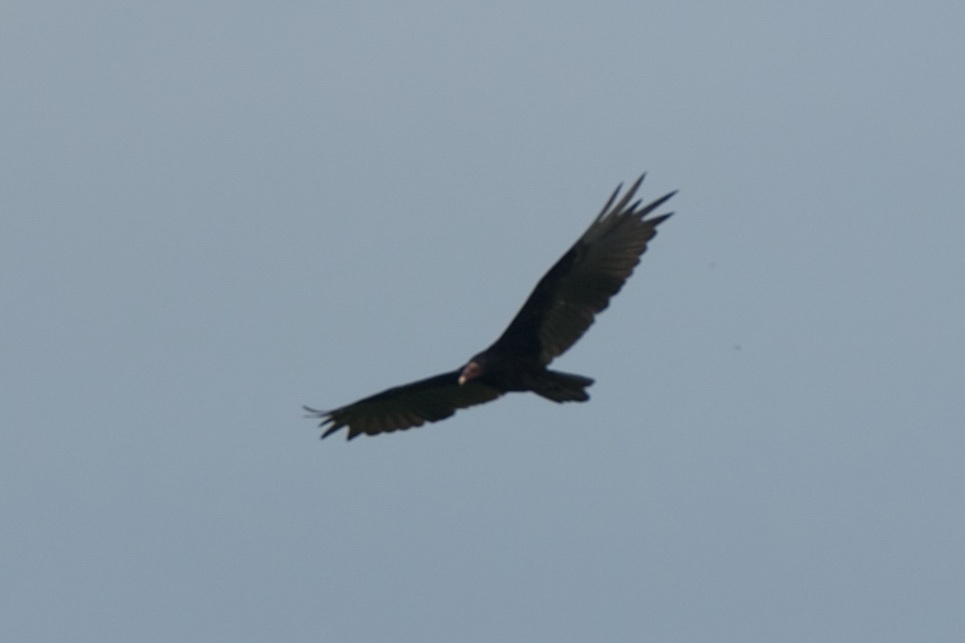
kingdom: Animalia
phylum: Chordata
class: Aves
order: Accipitriformes
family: Cathartidae
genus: Cathartes
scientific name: Cathartes aura
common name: Turkey vulture
